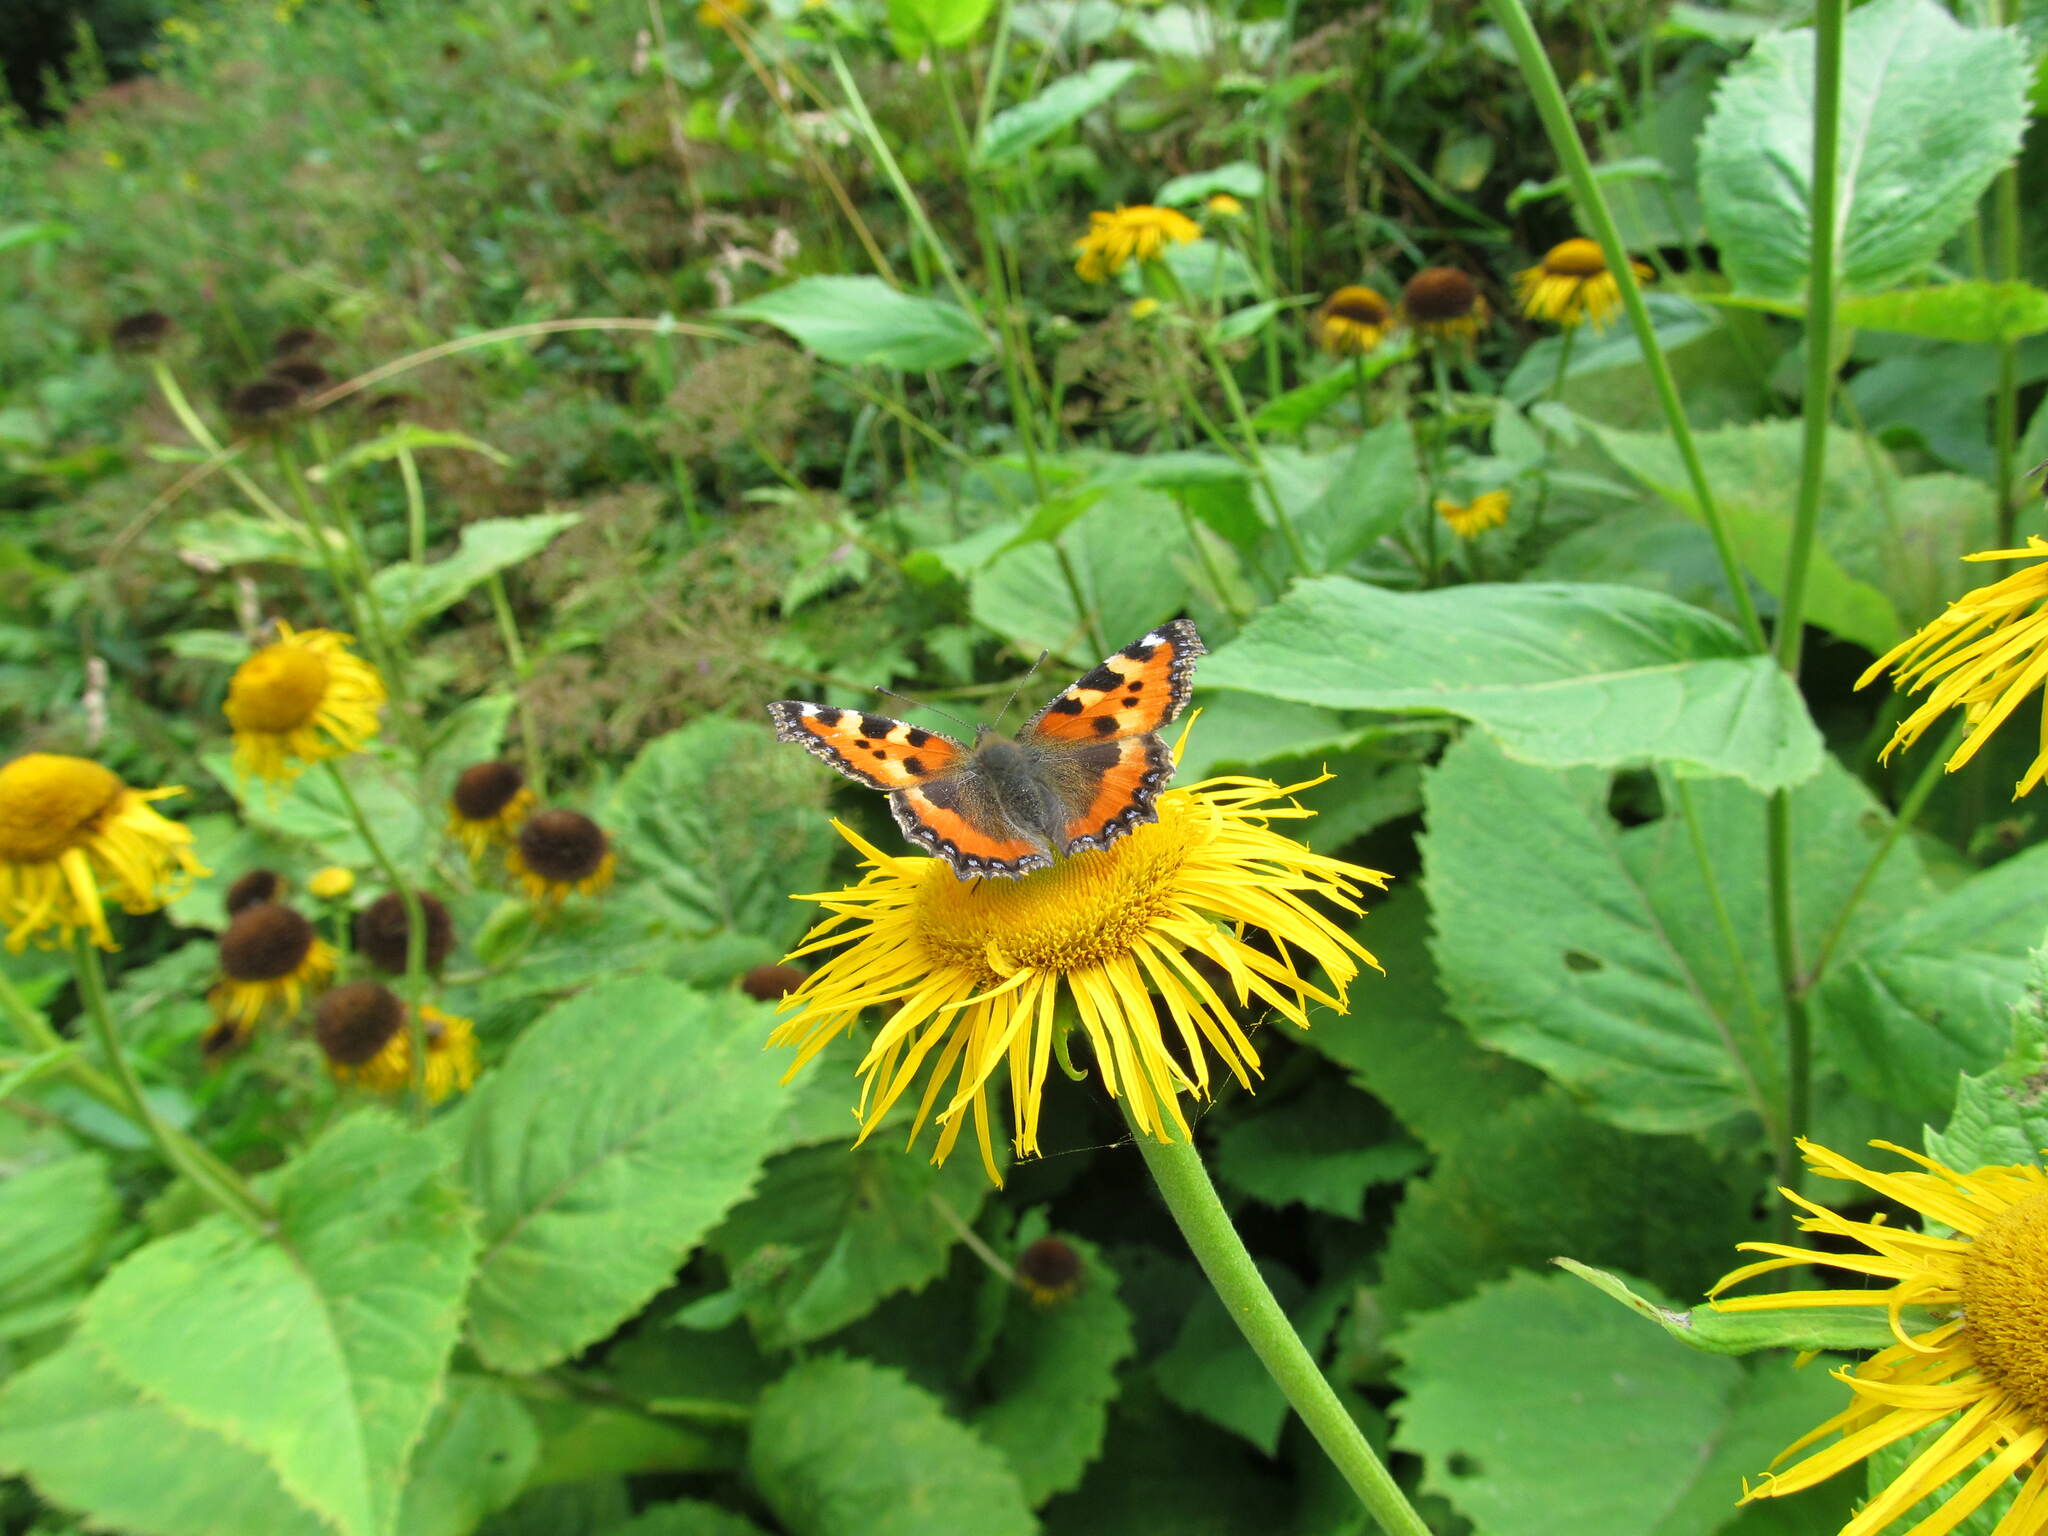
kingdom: Animalia
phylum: Arthropoda
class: Insecta
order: Lepidoptera
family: Nymphalidae
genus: Aglais
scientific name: Aglais urticae
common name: Small tortoiseshell
